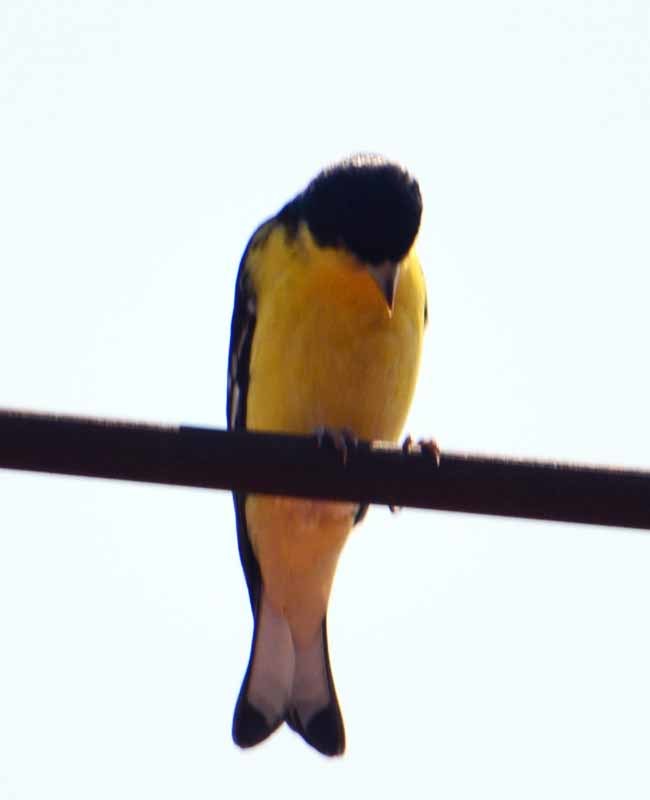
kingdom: Animalia
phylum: Chordata
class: Aves
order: Passeriformes
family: Fringillidae
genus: Spinus
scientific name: Spinus psaltria
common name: Lesser goldfinch
